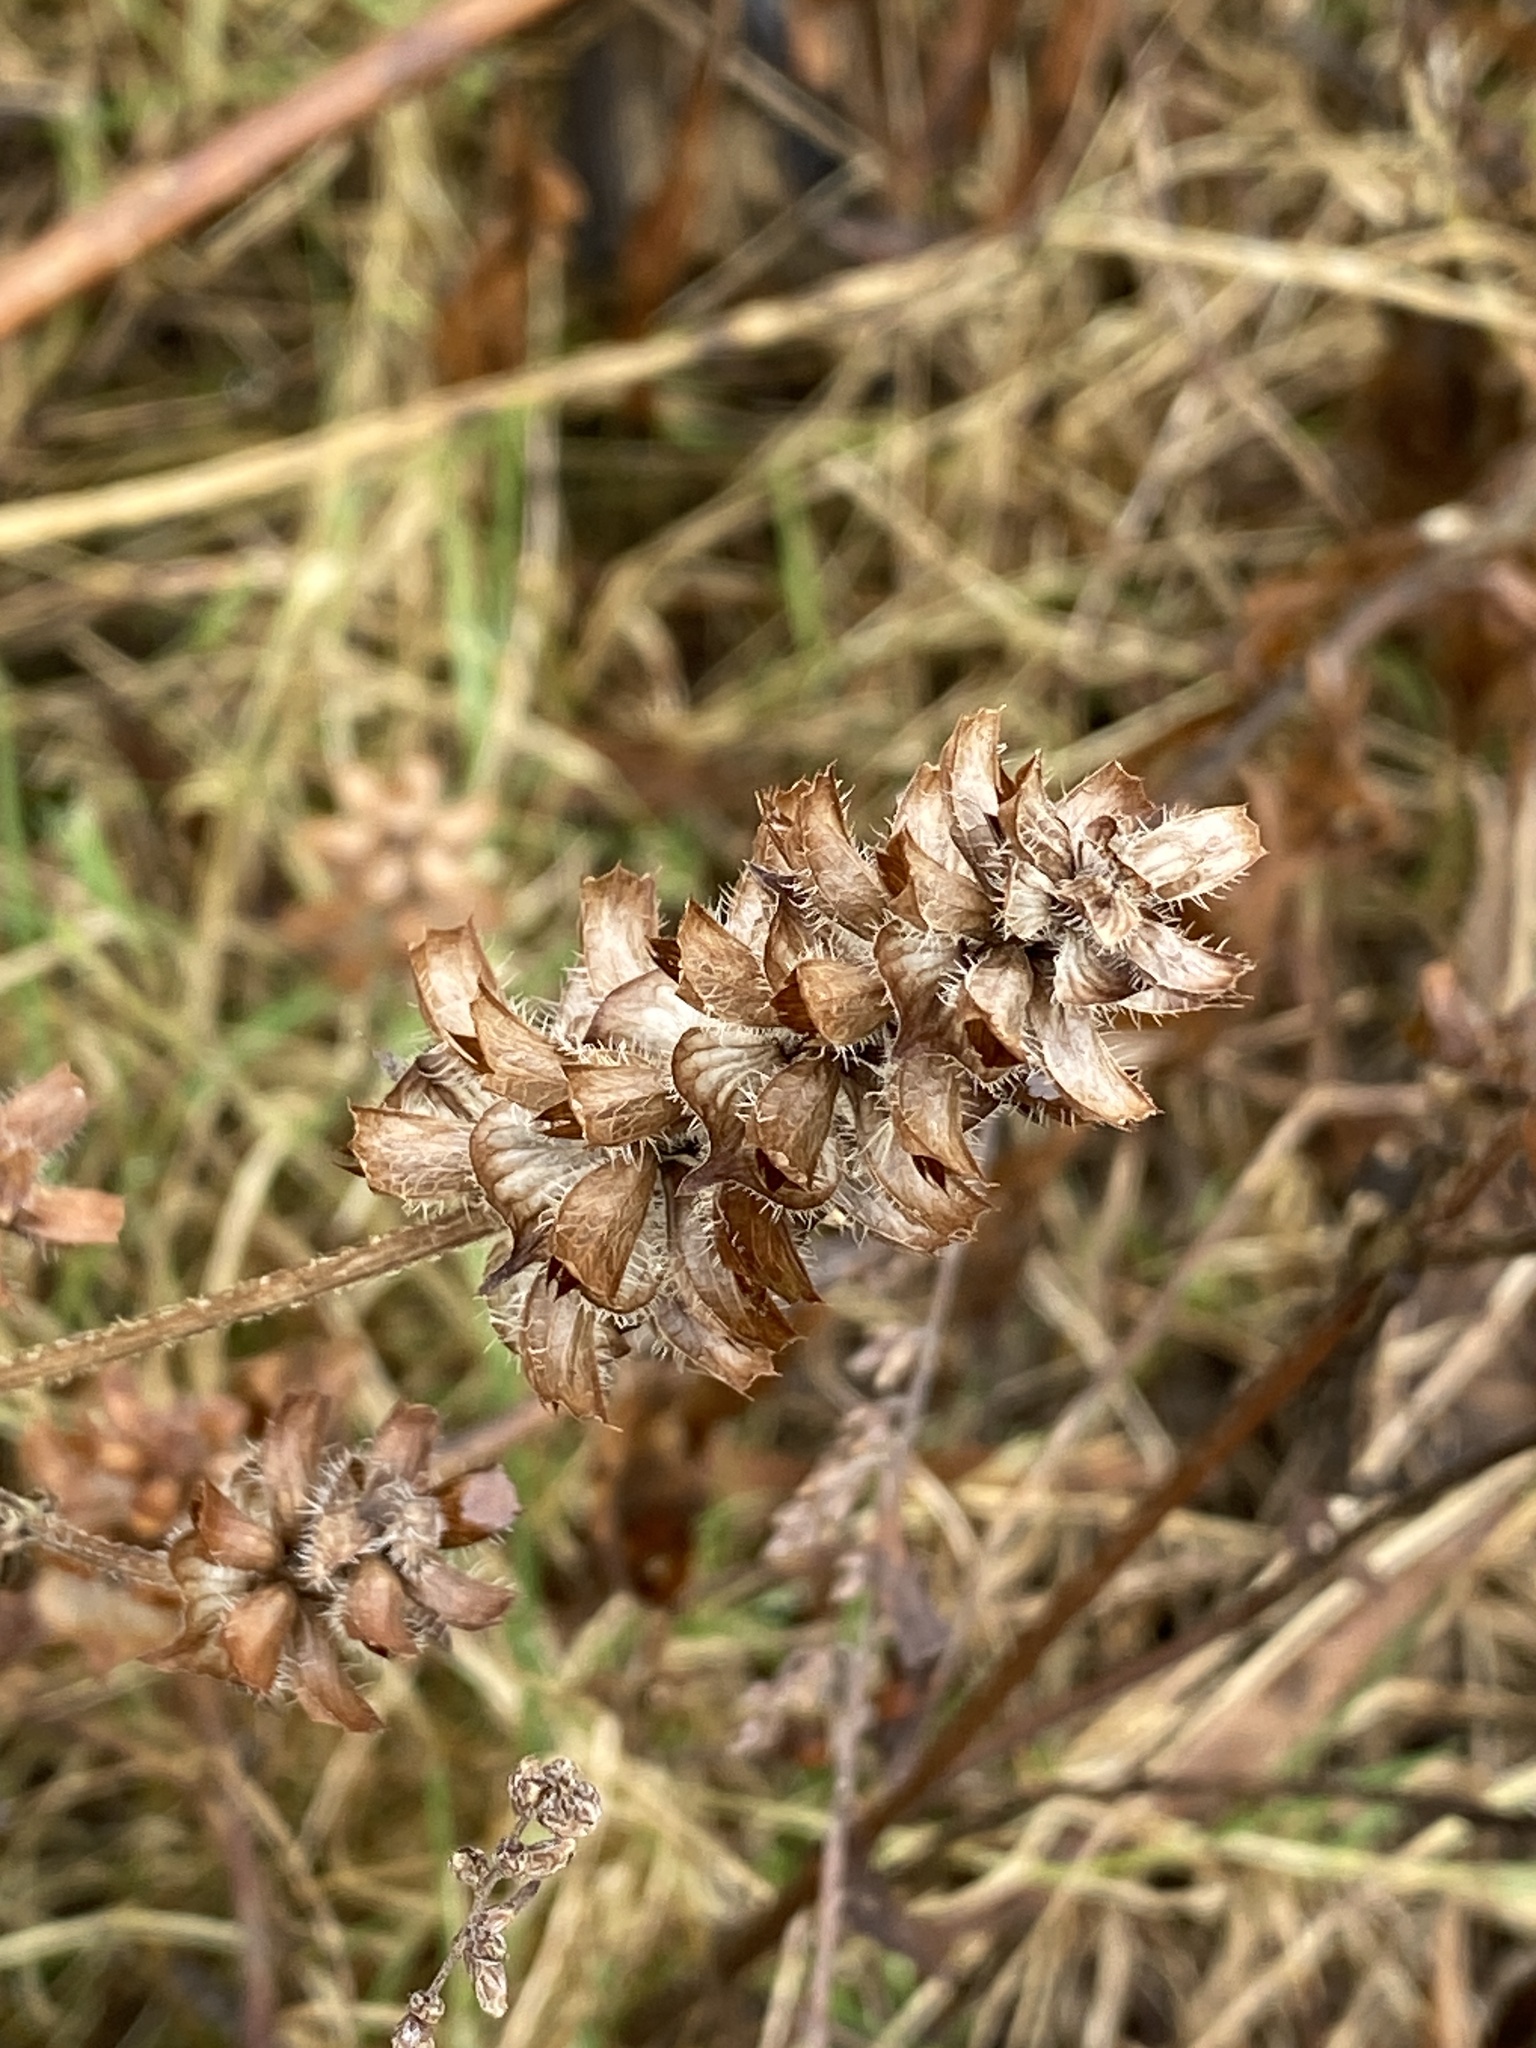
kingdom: Plantae
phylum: Tracheophyta
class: Magnoliopsida
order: Lamiales
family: Lamiaceae
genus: Prunella
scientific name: Prunella vulgaris
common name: Heal-all
